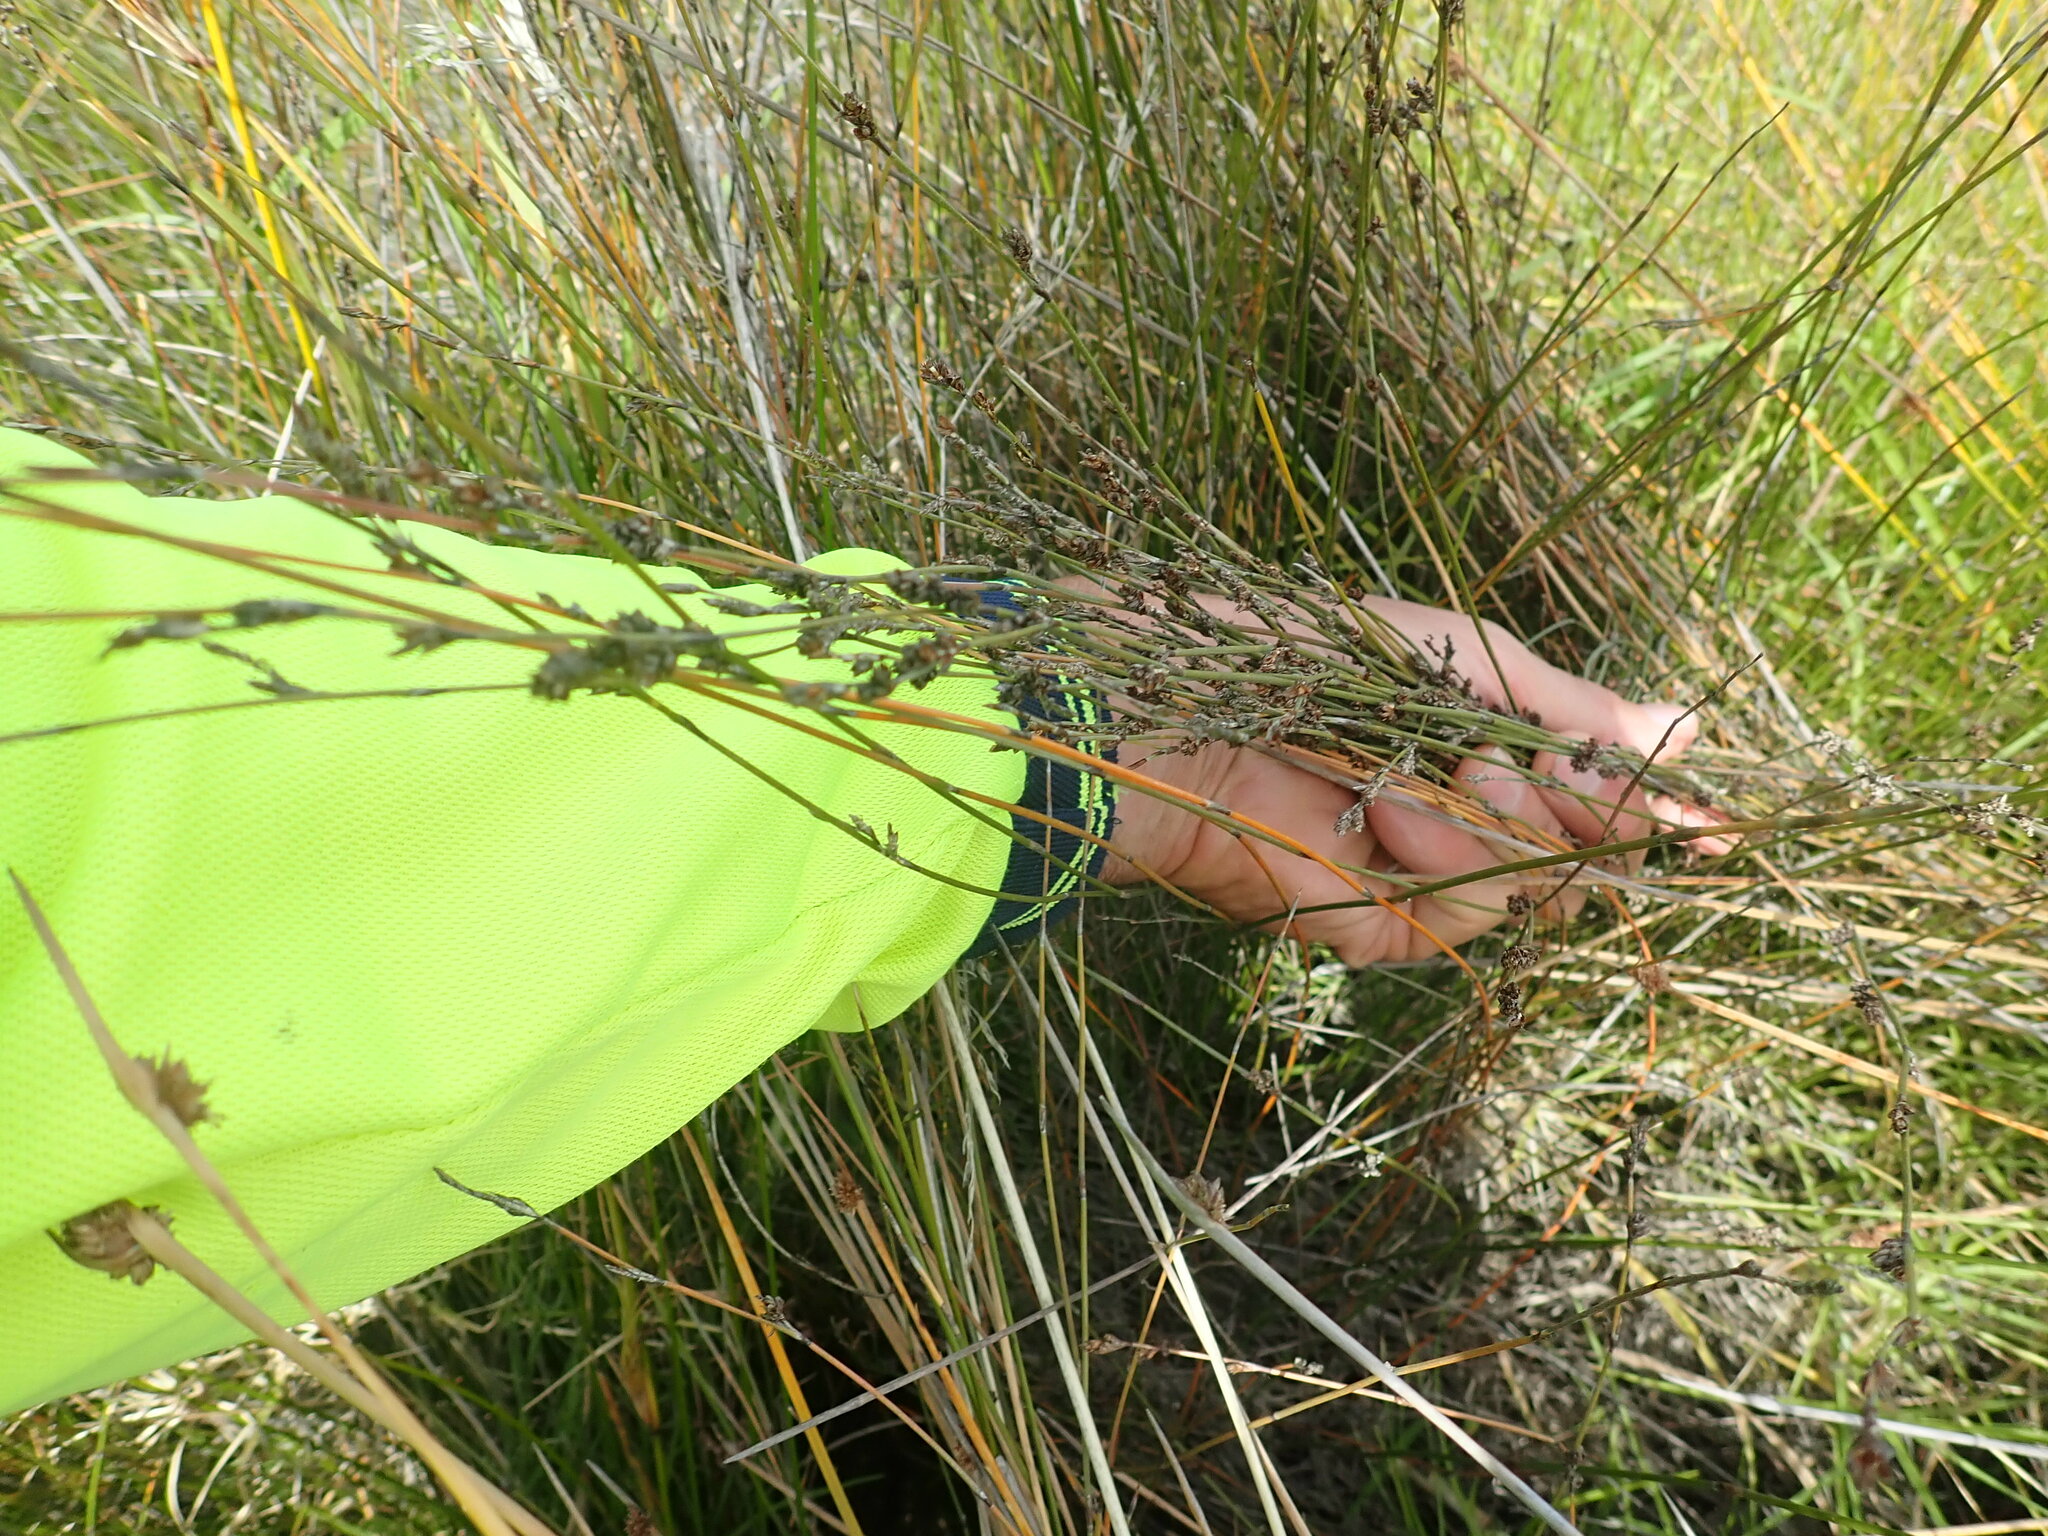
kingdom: Plantae
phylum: Tracheophyta
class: Liliopsida
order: Poales
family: Restionaceae
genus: Apodasmia
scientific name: Apodasmia similis
